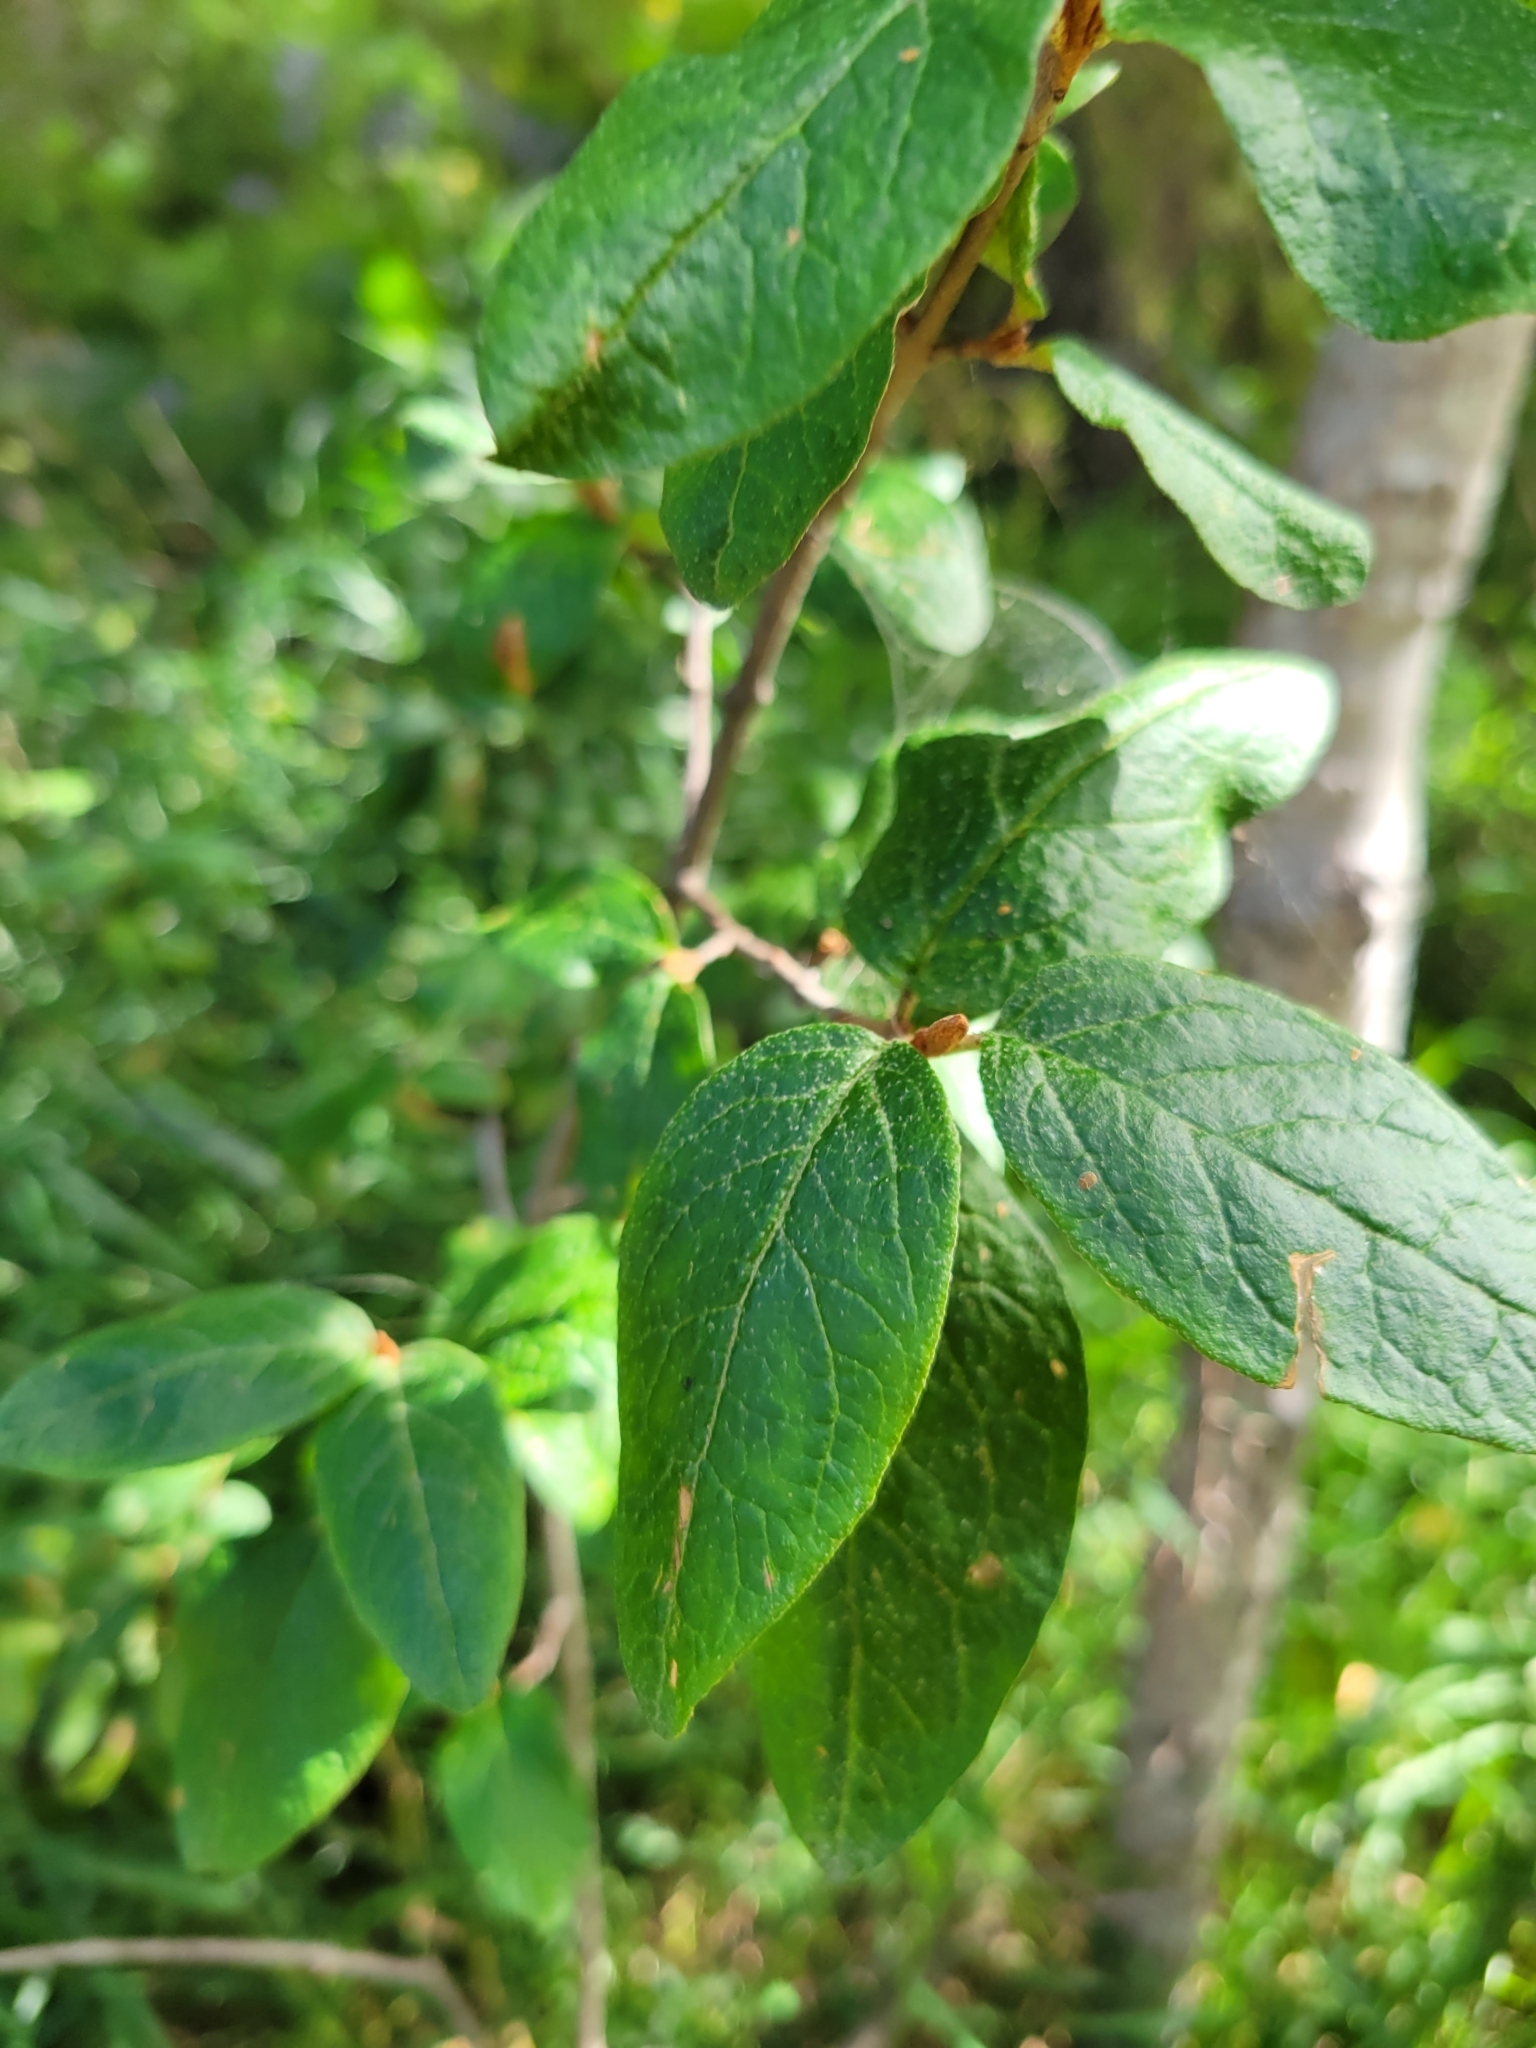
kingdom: Plantae
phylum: Tracheophyta
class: Magnoliopsida
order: Rosales
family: Elaeagnaceae
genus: Shepherdia
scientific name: Shepherdia canadensis
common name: Soapberry
